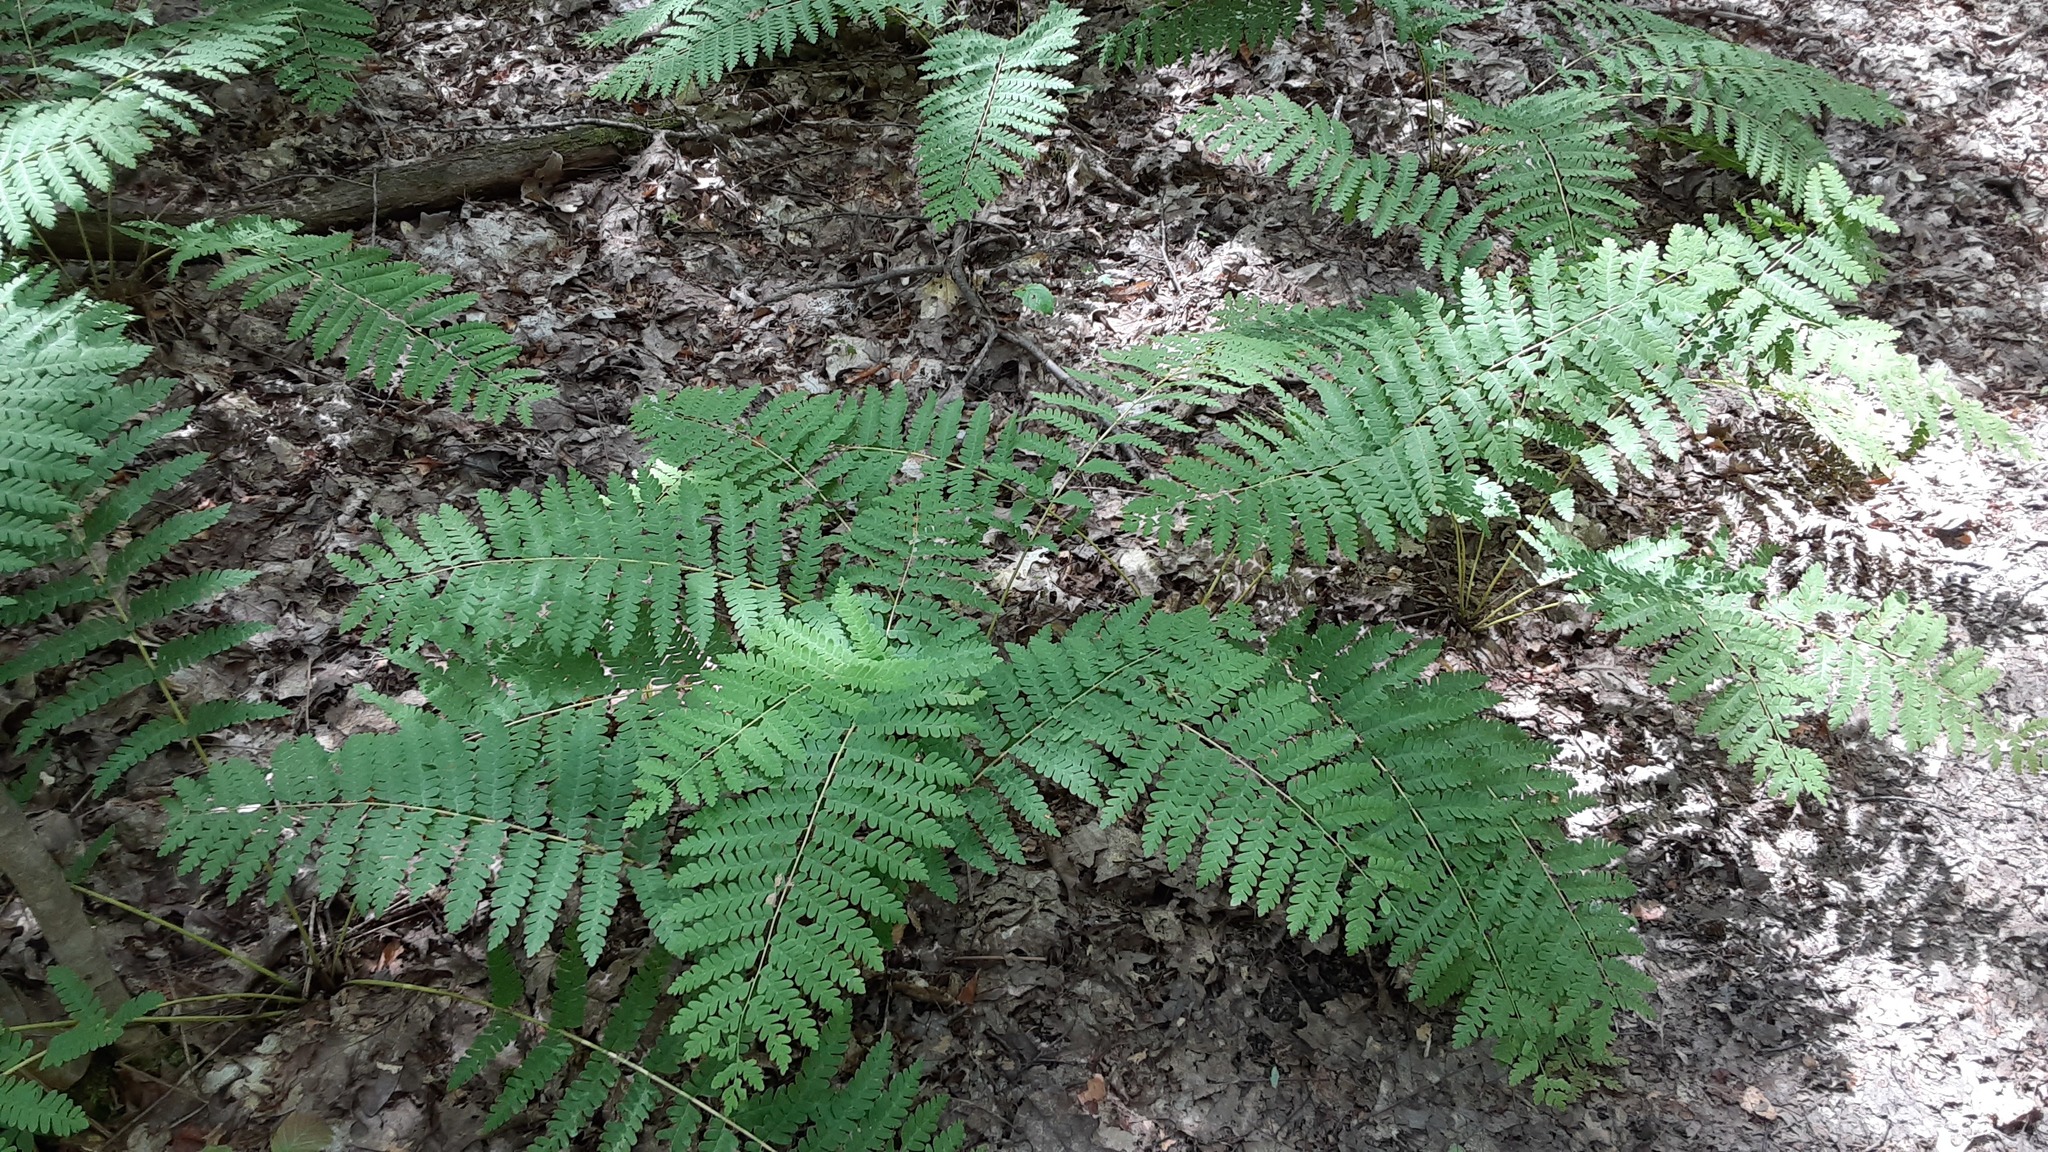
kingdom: Plantae
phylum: Tracheophyta
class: Polypodiopsida
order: Osmundales
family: Osmundaceae
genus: Claytosmunda
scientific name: Claytosmunda claytoniana
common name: Clayton's fern
